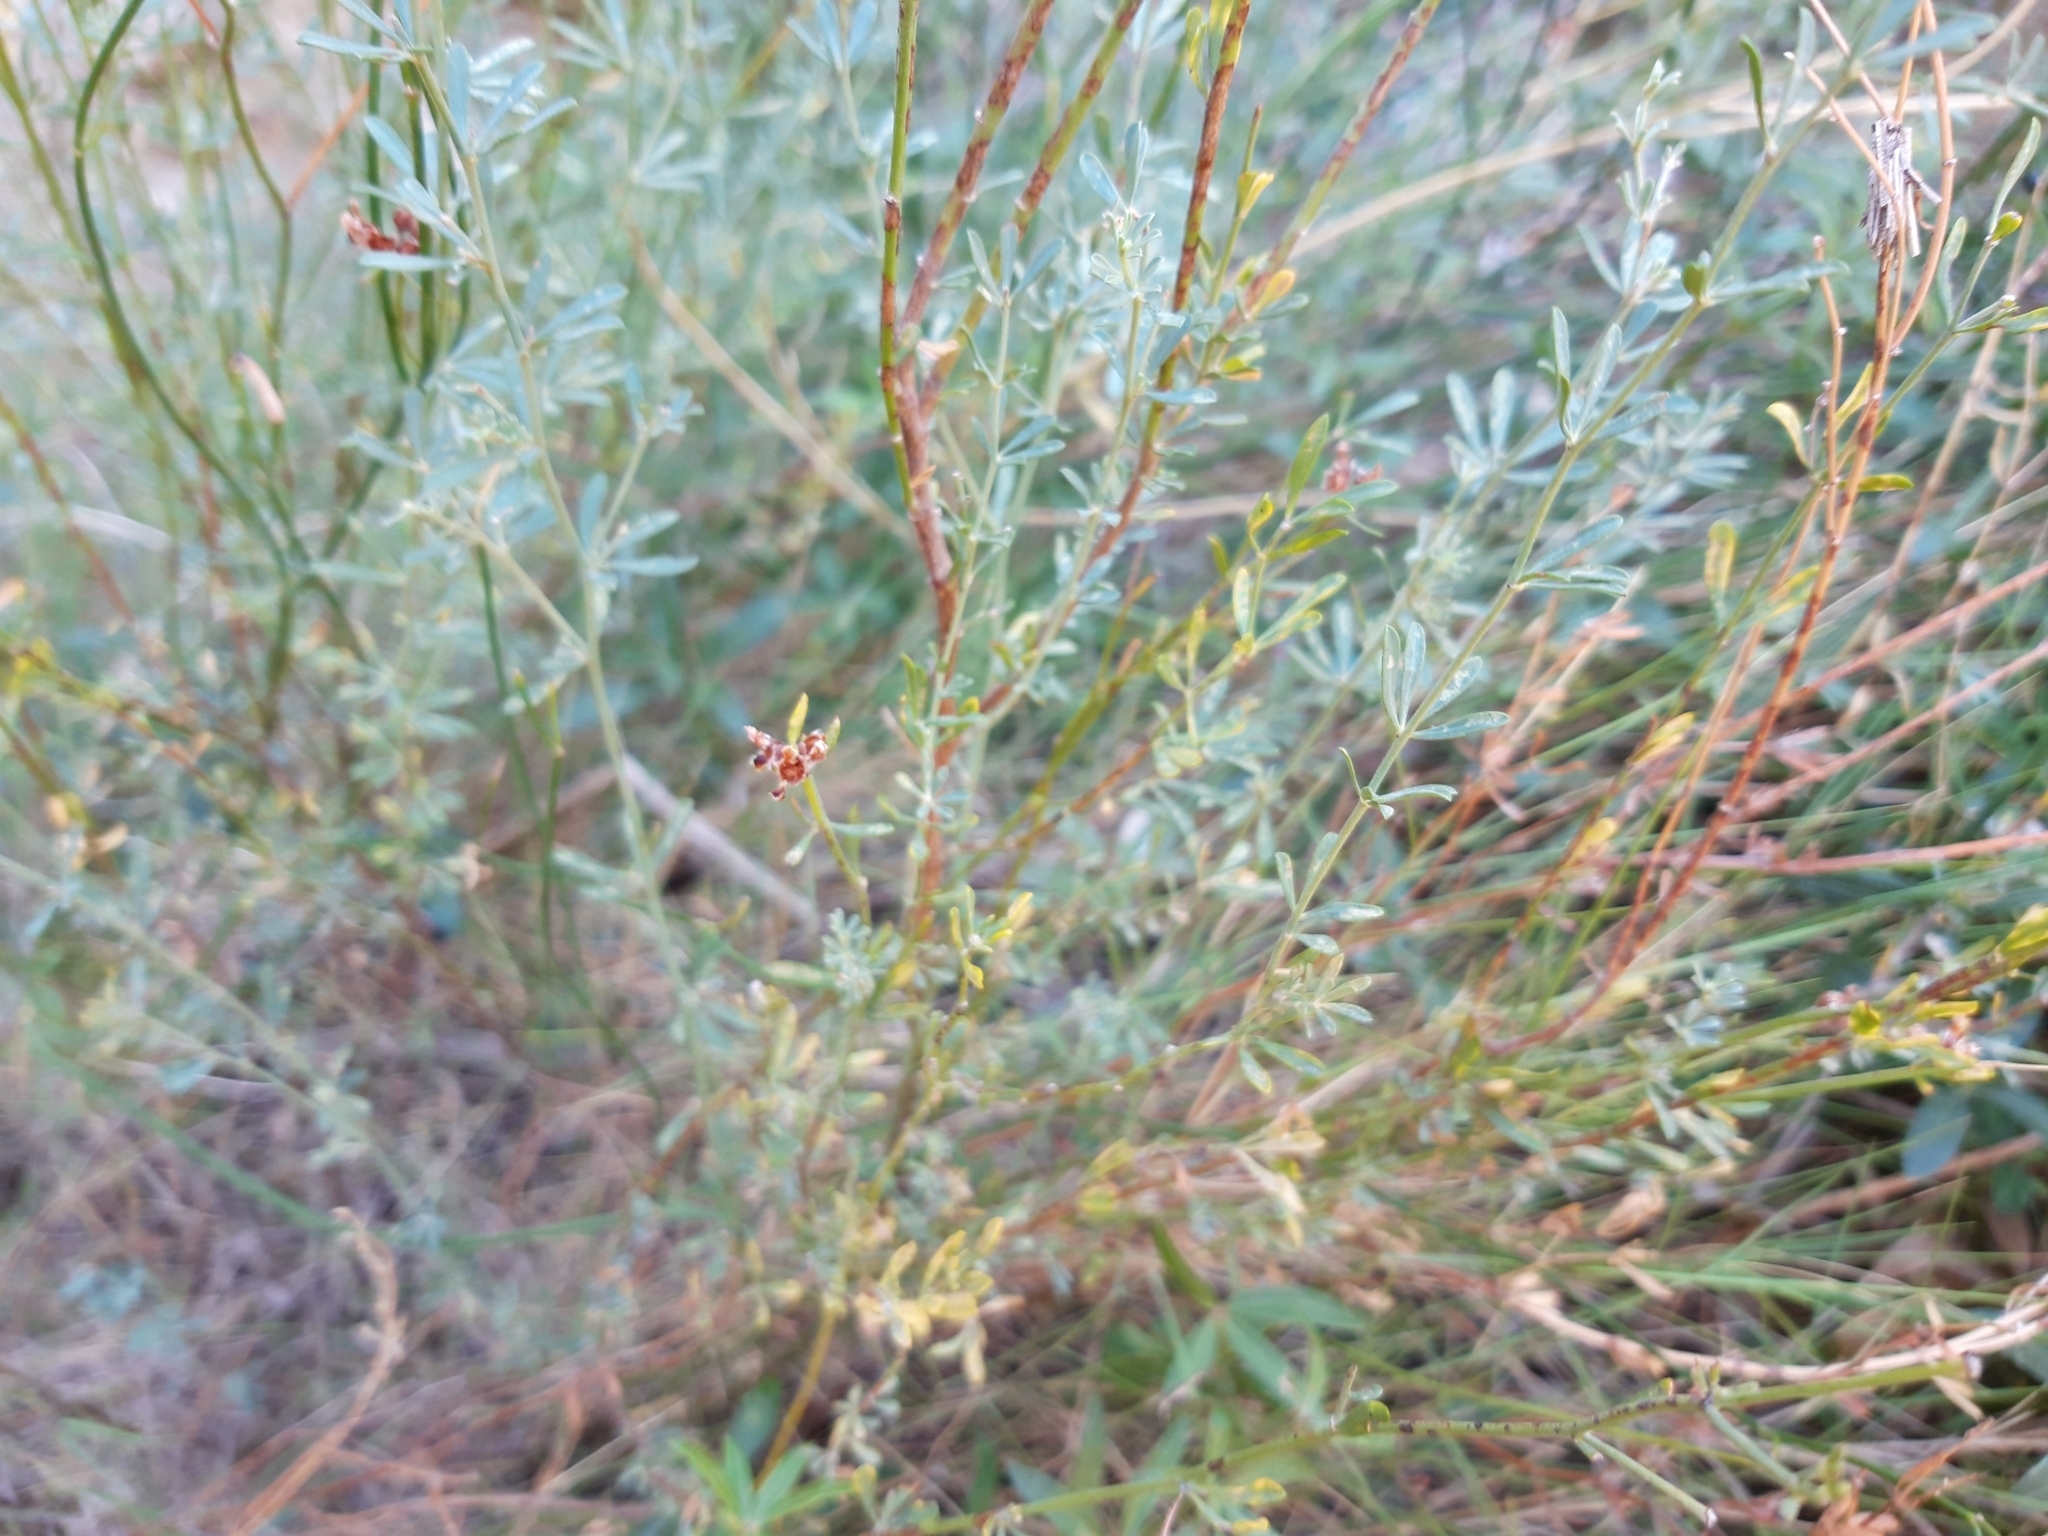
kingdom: Plantae
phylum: Tracheophyta
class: Magnoliopsida
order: Fabales
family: Fabaceae
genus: Lotus
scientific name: Lotus dorycnium
